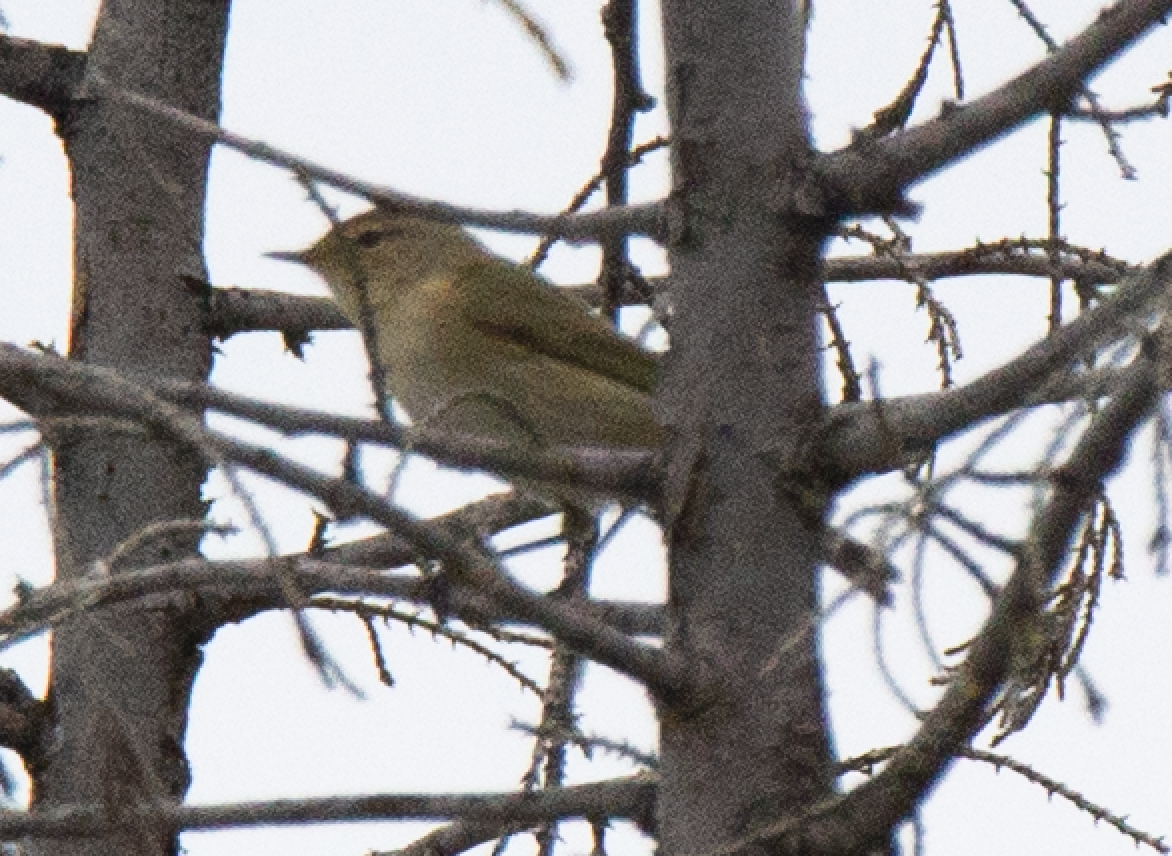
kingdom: Animalia
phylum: Chordata
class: Aves
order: Passeriformes
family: Phylloscopidae
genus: Phylloscopus
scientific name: Phylloscopus collybita
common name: Common chiffchaff
